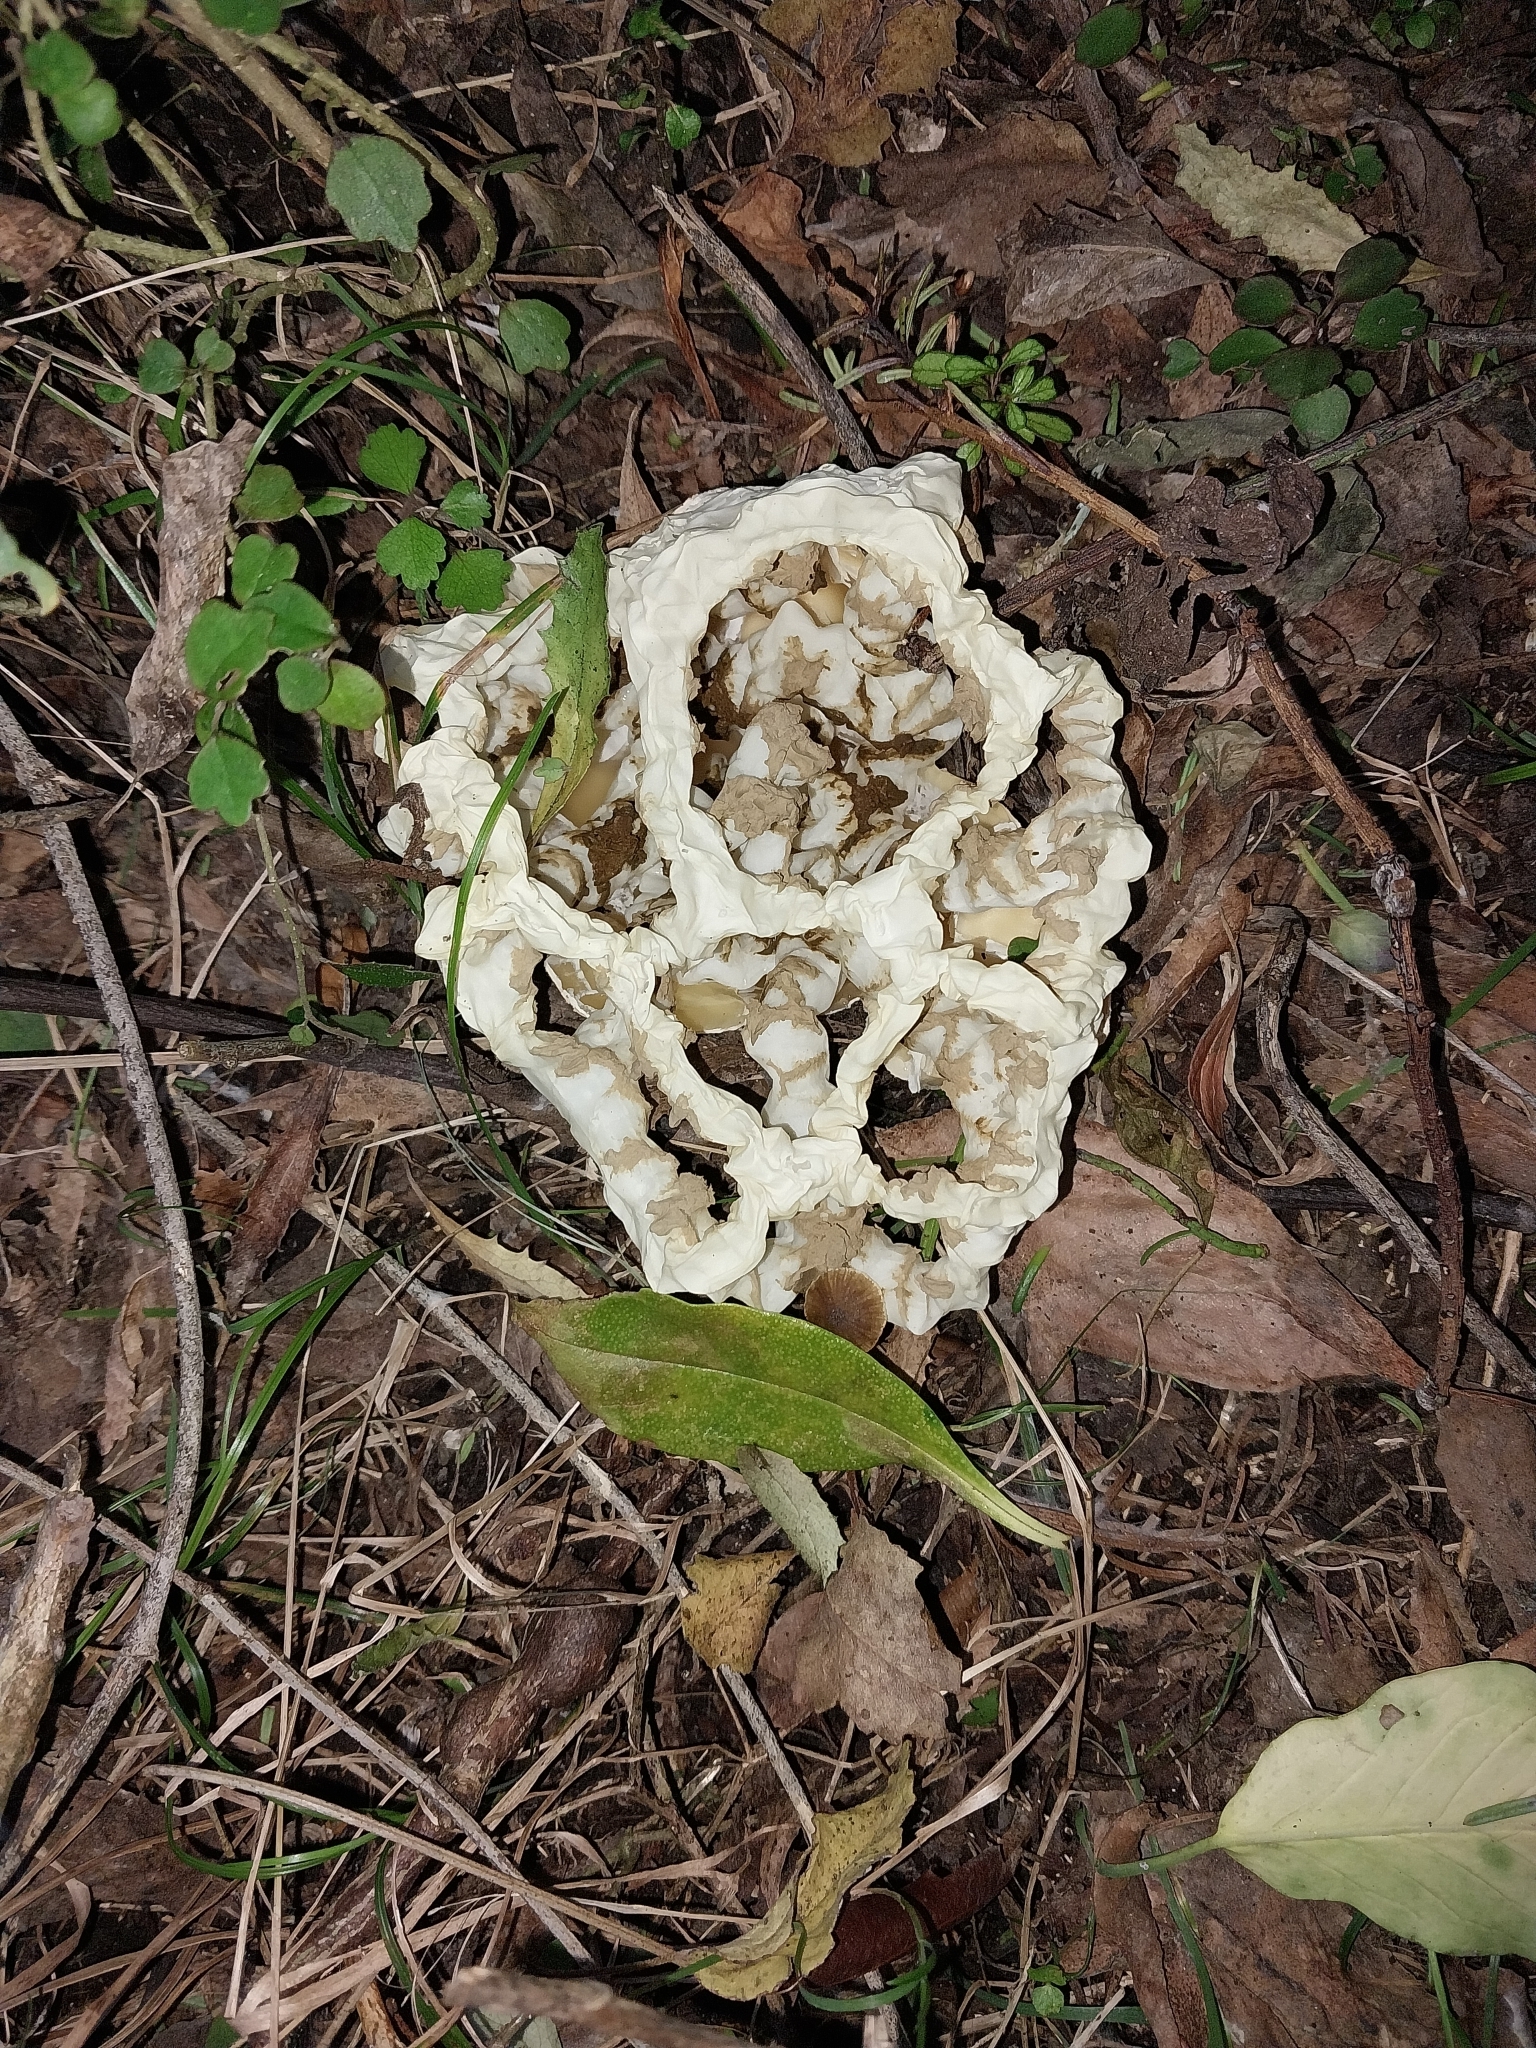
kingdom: Fungi
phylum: Basidiomycota
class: Agaricomycetes
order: Phallales
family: Phallaceae
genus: Ileodictyon
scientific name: Ileodictyon cibarium
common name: Basket fungus
